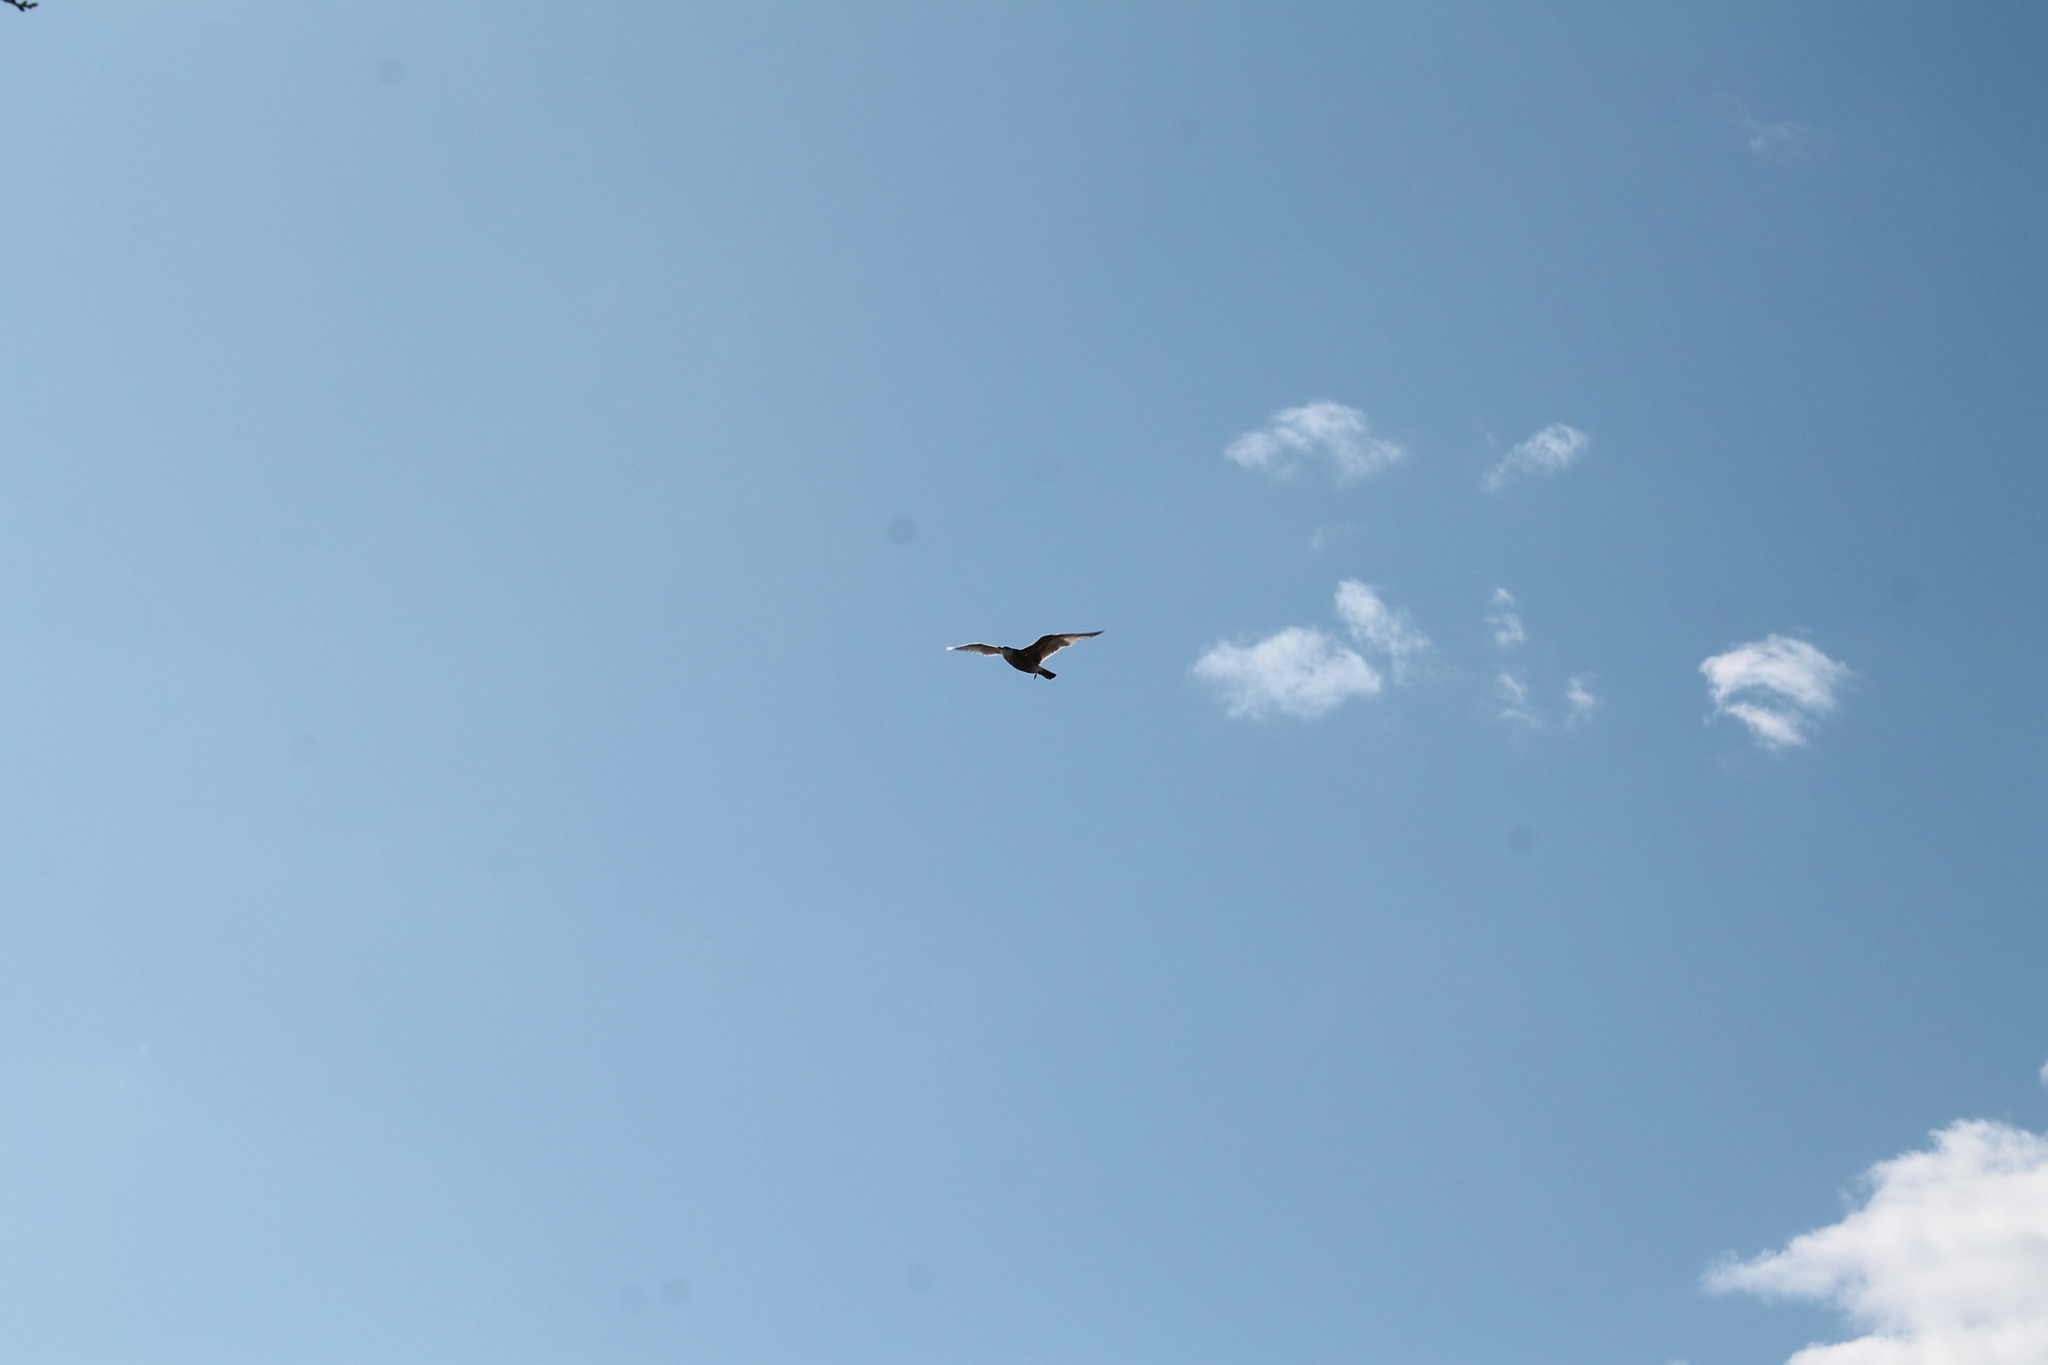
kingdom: Animalia
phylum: Chordata
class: Aves
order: Charadriiformes
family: Laridae
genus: Larus
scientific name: Larus argentatus
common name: Herring gull
